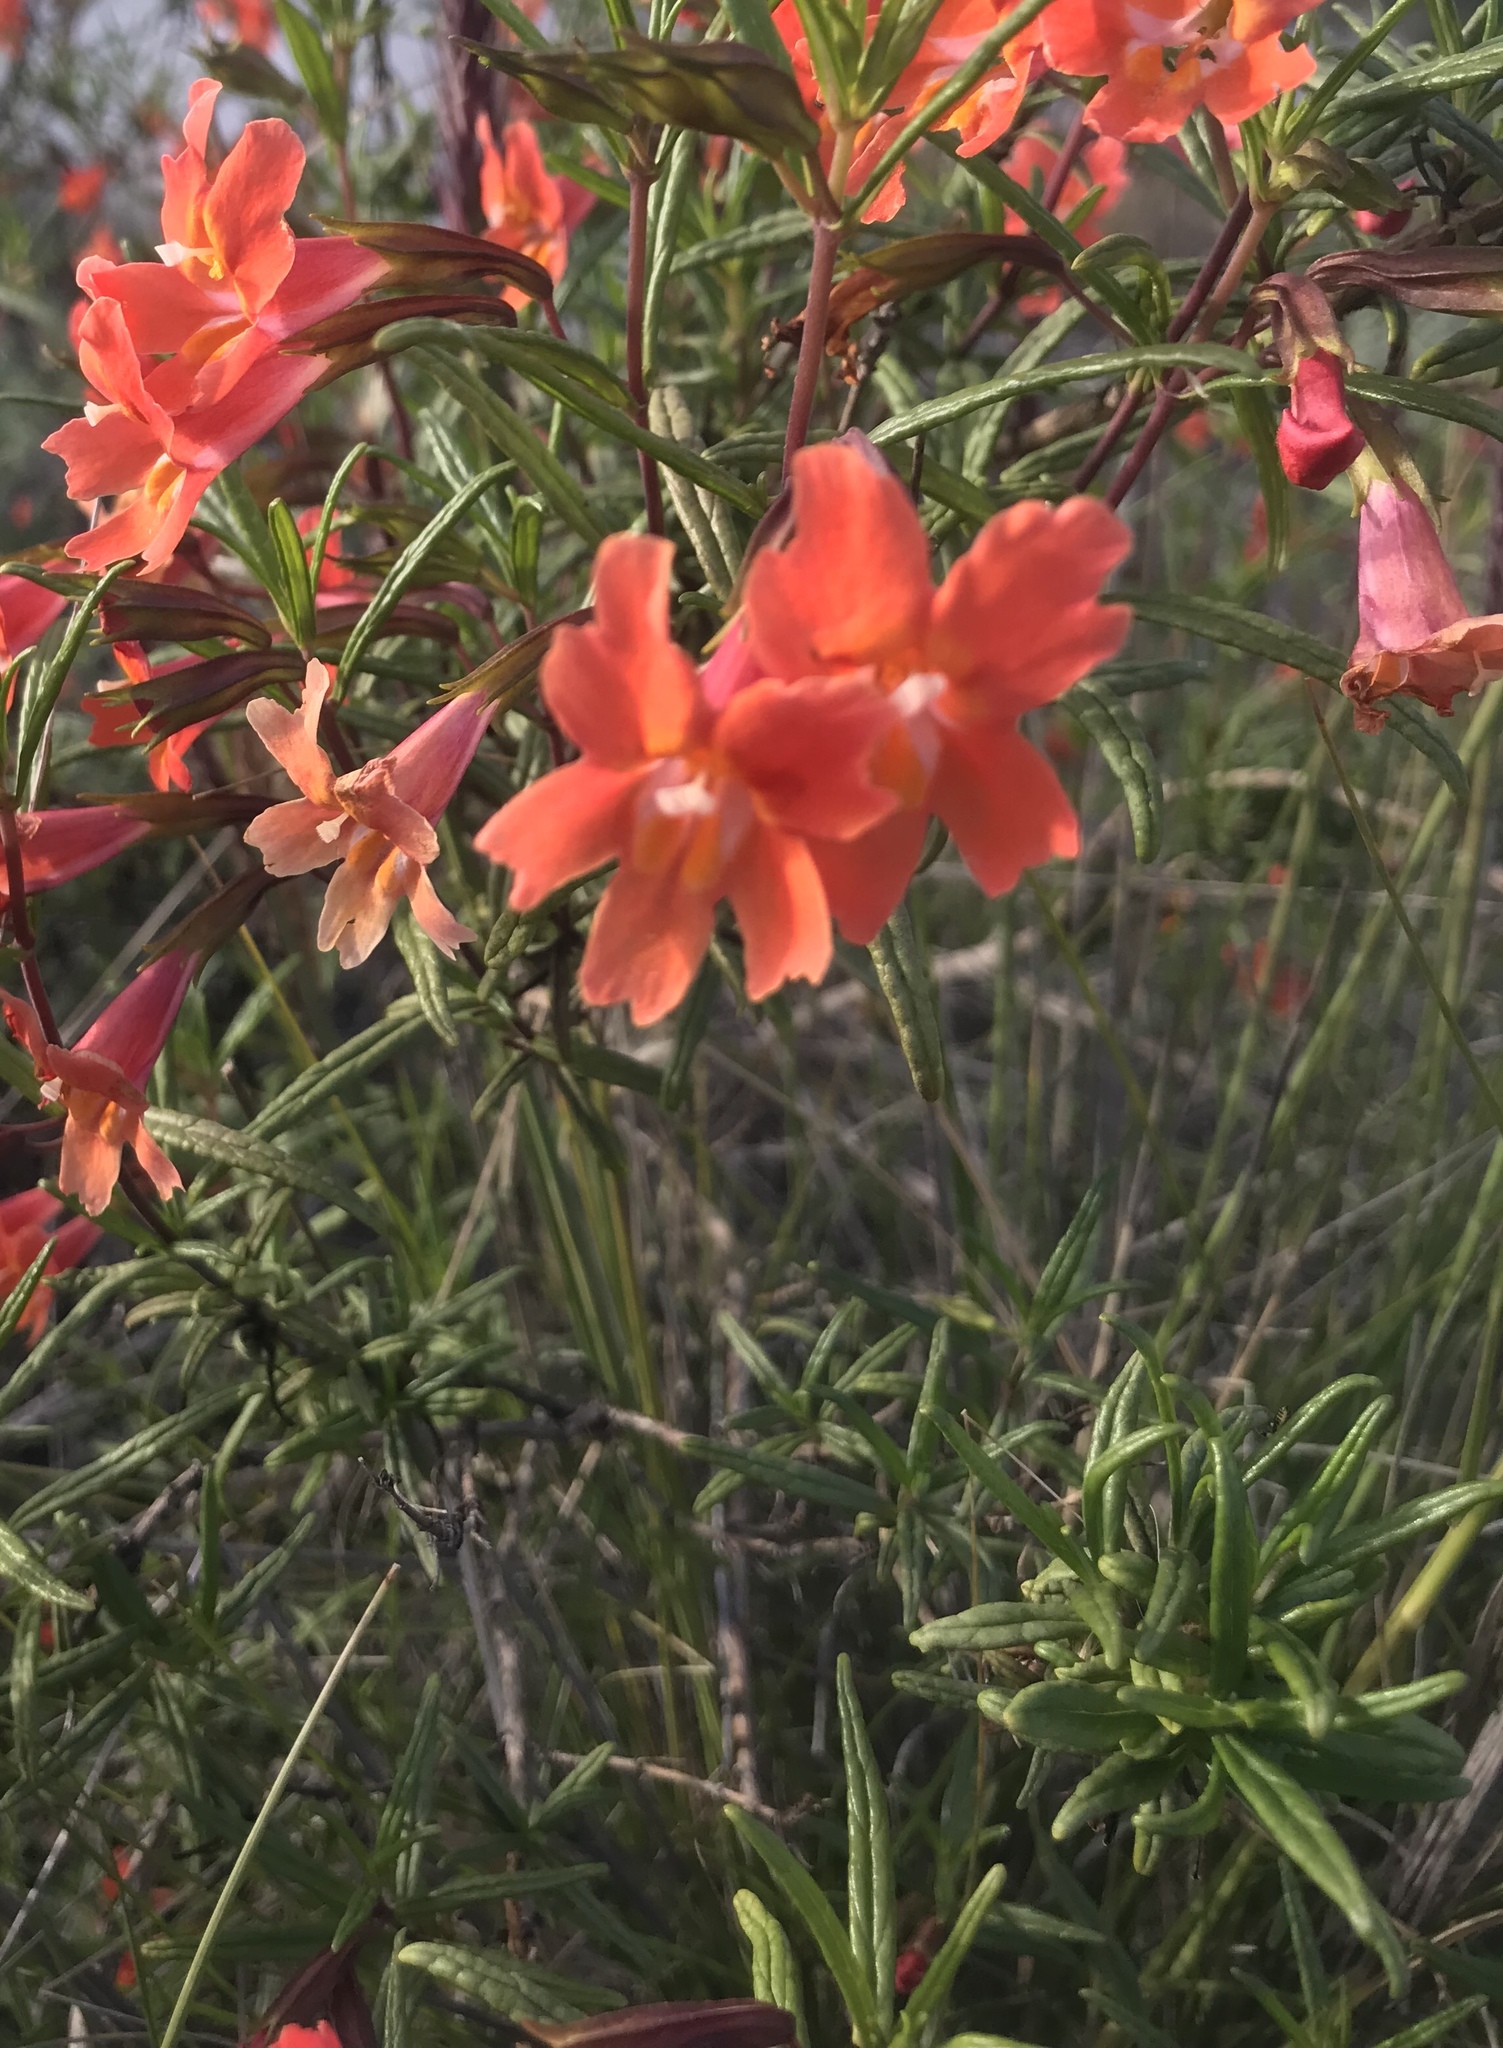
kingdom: Plantae
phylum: Tracheophyta
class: Magnoliopsida
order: Lamiales
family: Phrymaceae
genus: Diplacus
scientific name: Diplacus puniceus
